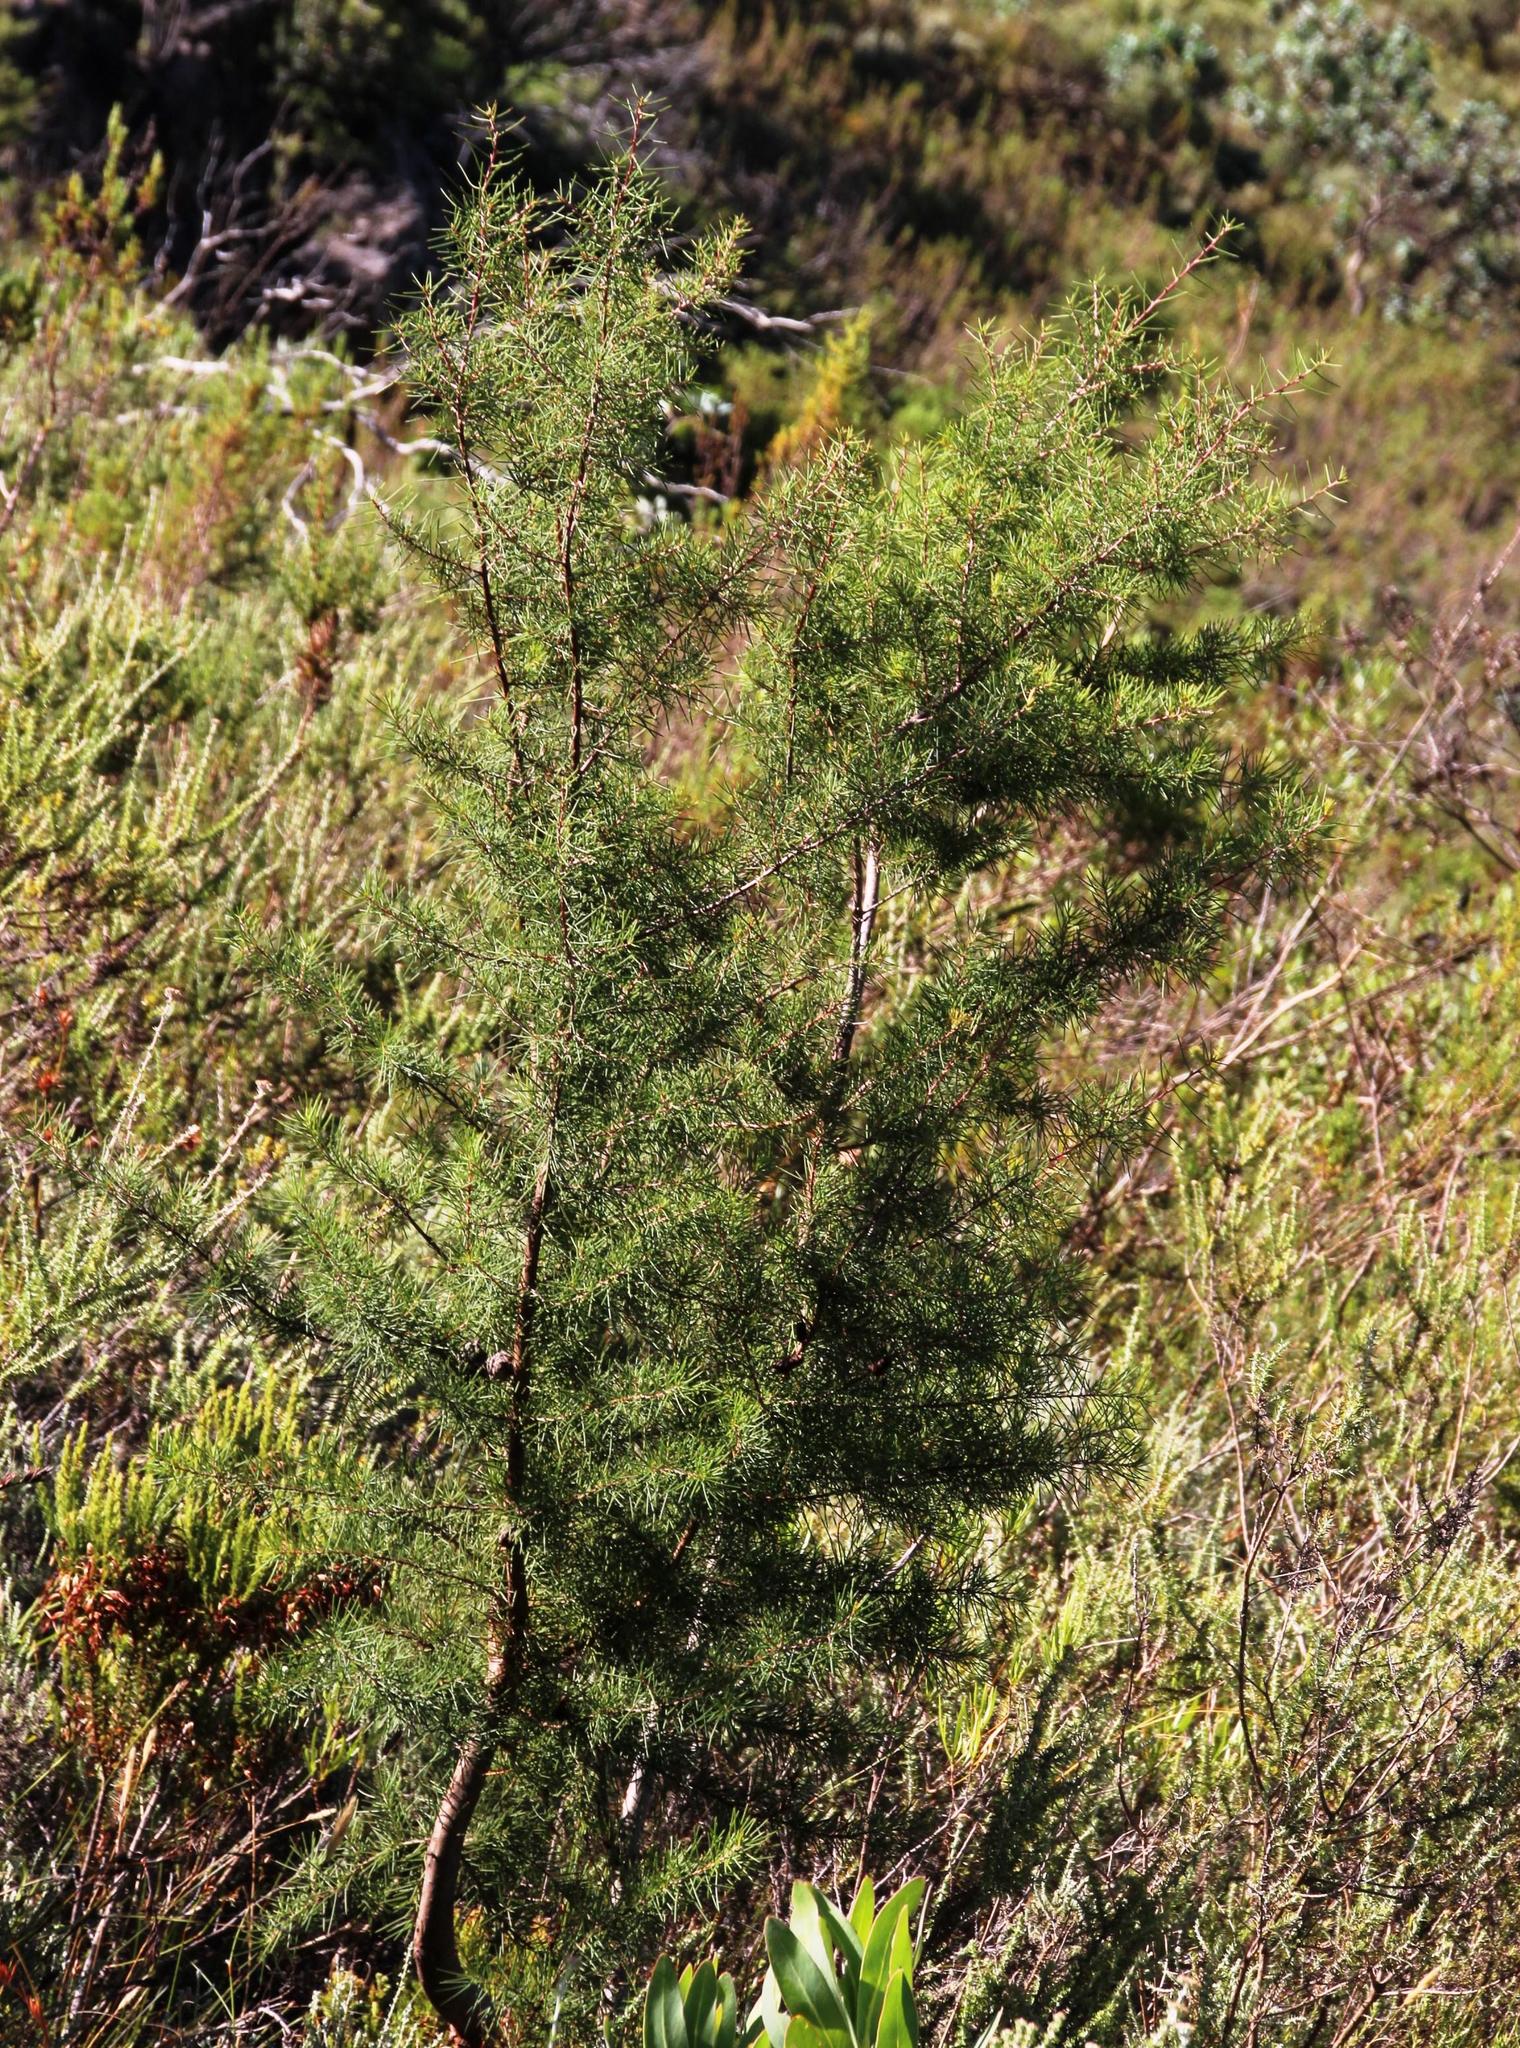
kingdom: Plantae
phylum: Tracheophyta
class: Magnoliopsida
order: Proteales
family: Proteaceae
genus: Hakea
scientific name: Hakea sericea
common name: Needle bush
